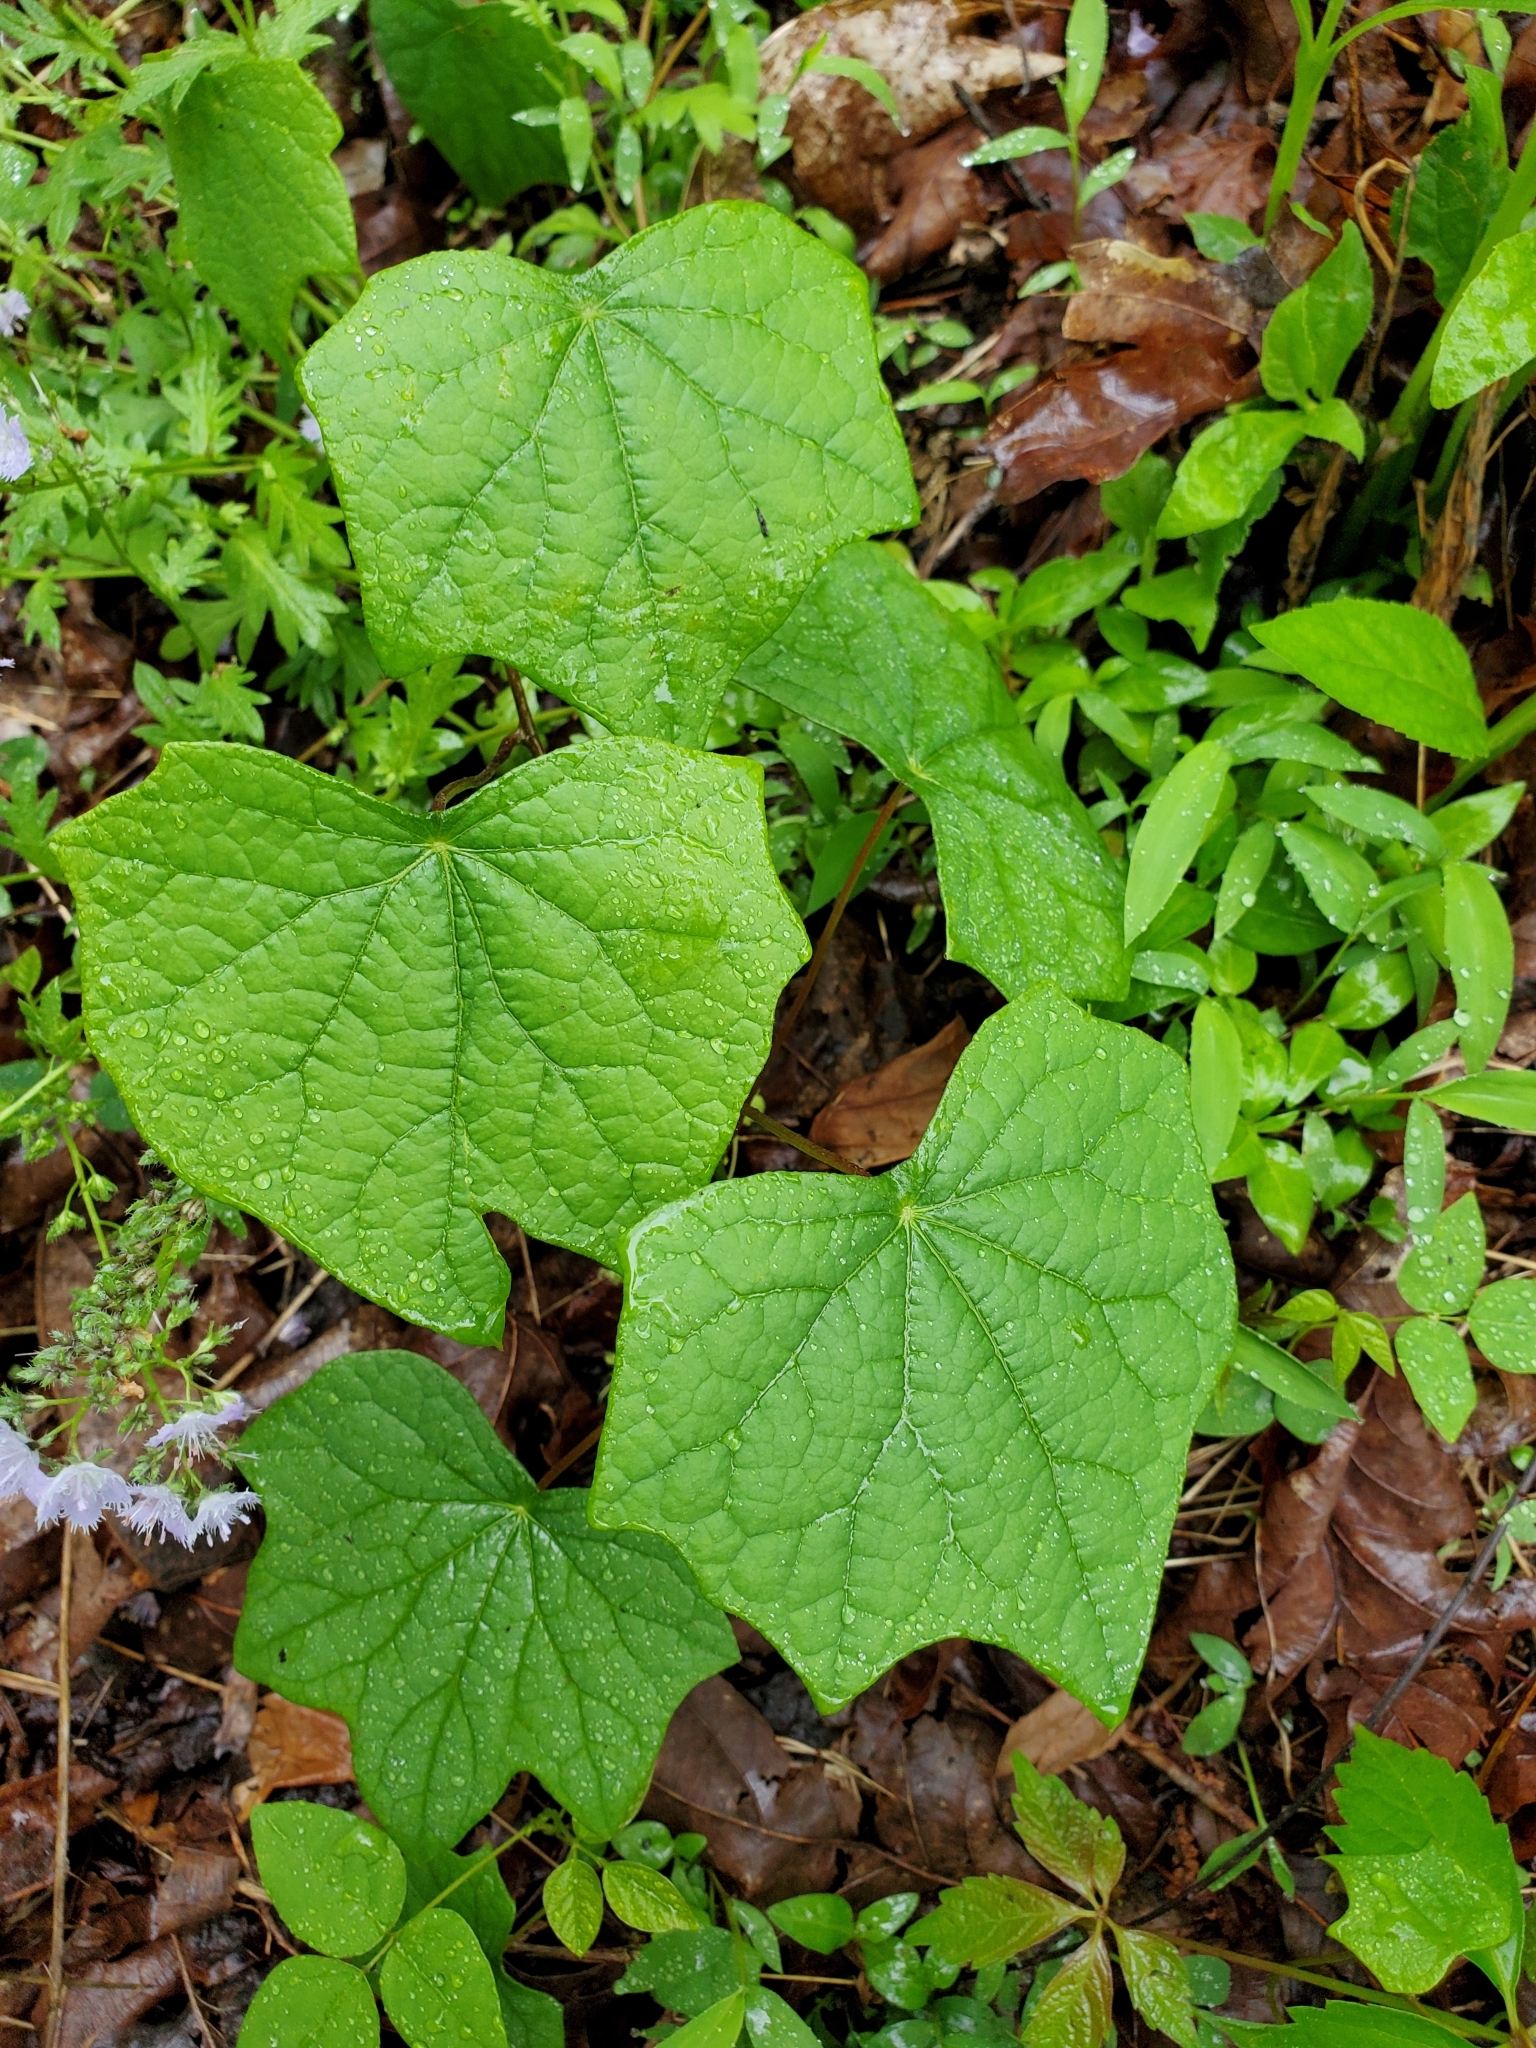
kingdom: Plantae
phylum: Tracheophyta
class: Magnoliopsida
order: Ranunculales
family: Menispermaceae
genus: Menispermum
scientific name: Menispermum canadense
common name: Moonseed
